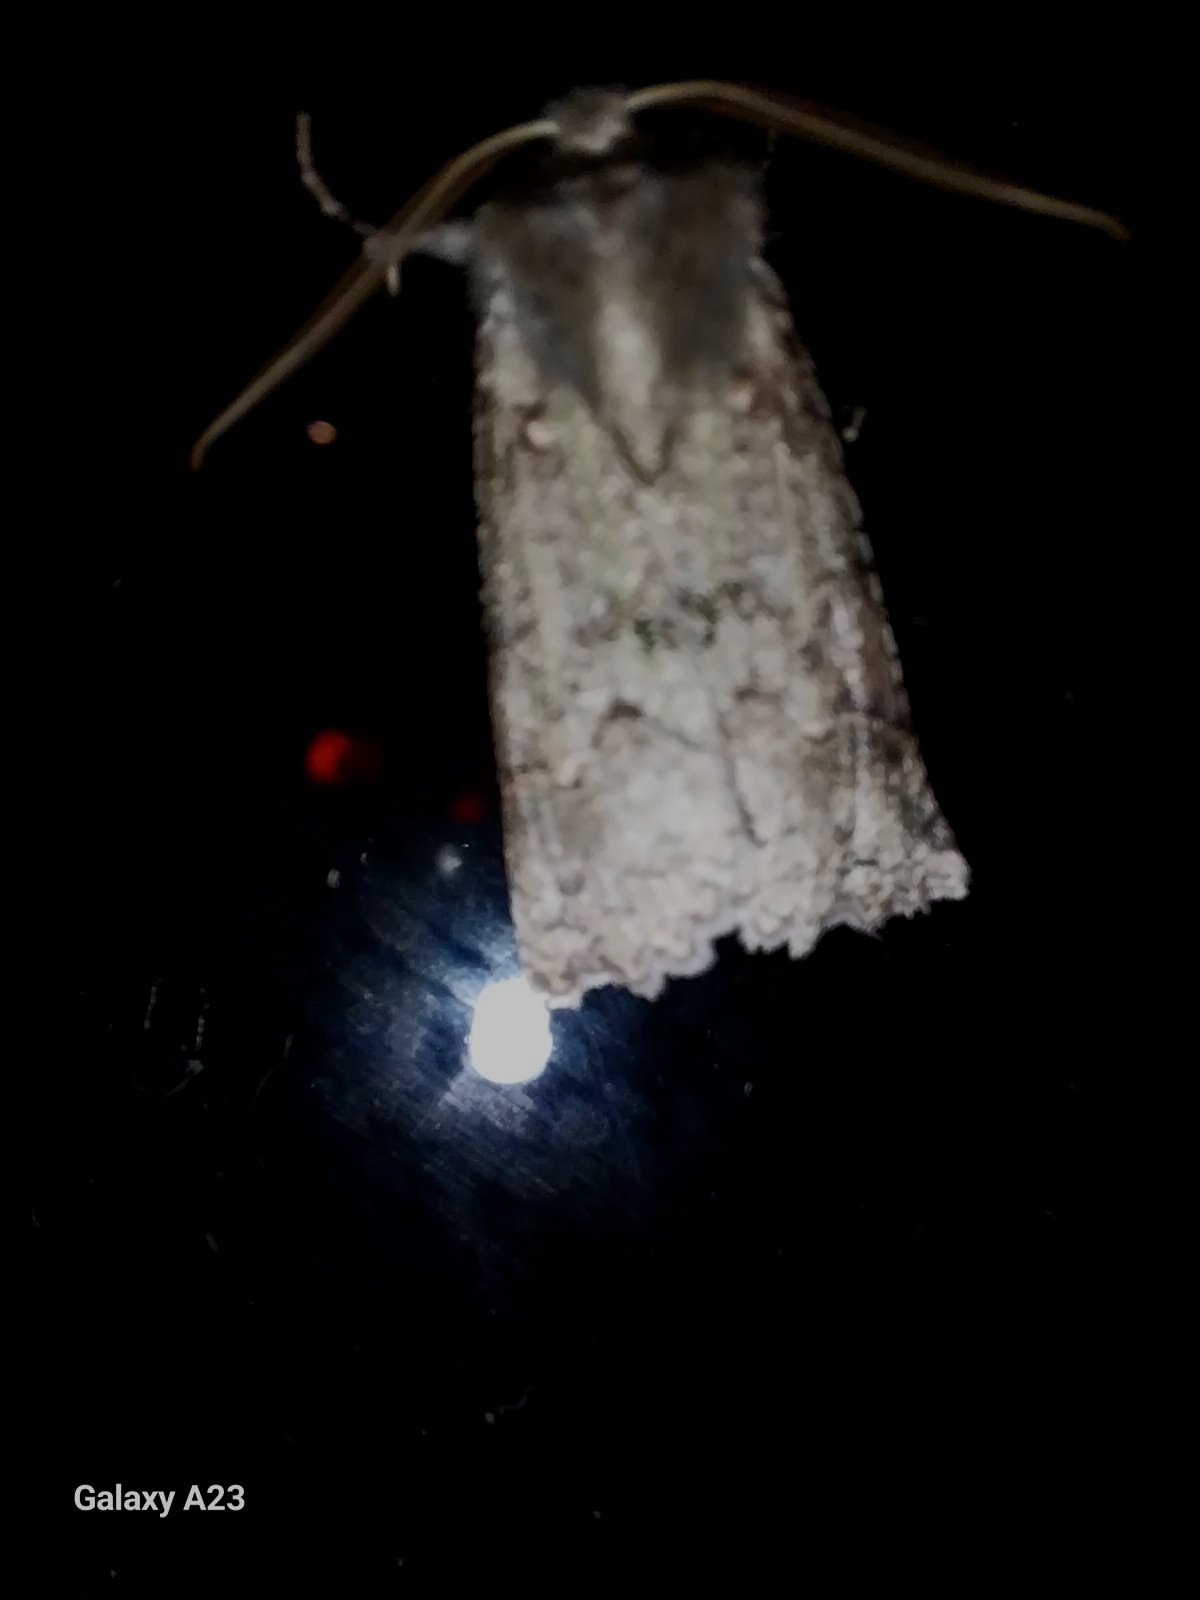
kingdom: Animalia
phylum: Arthropoda
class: Insecta
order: Lepidoptera
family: Geometridae
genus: Declana
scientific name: Declana floccosa
